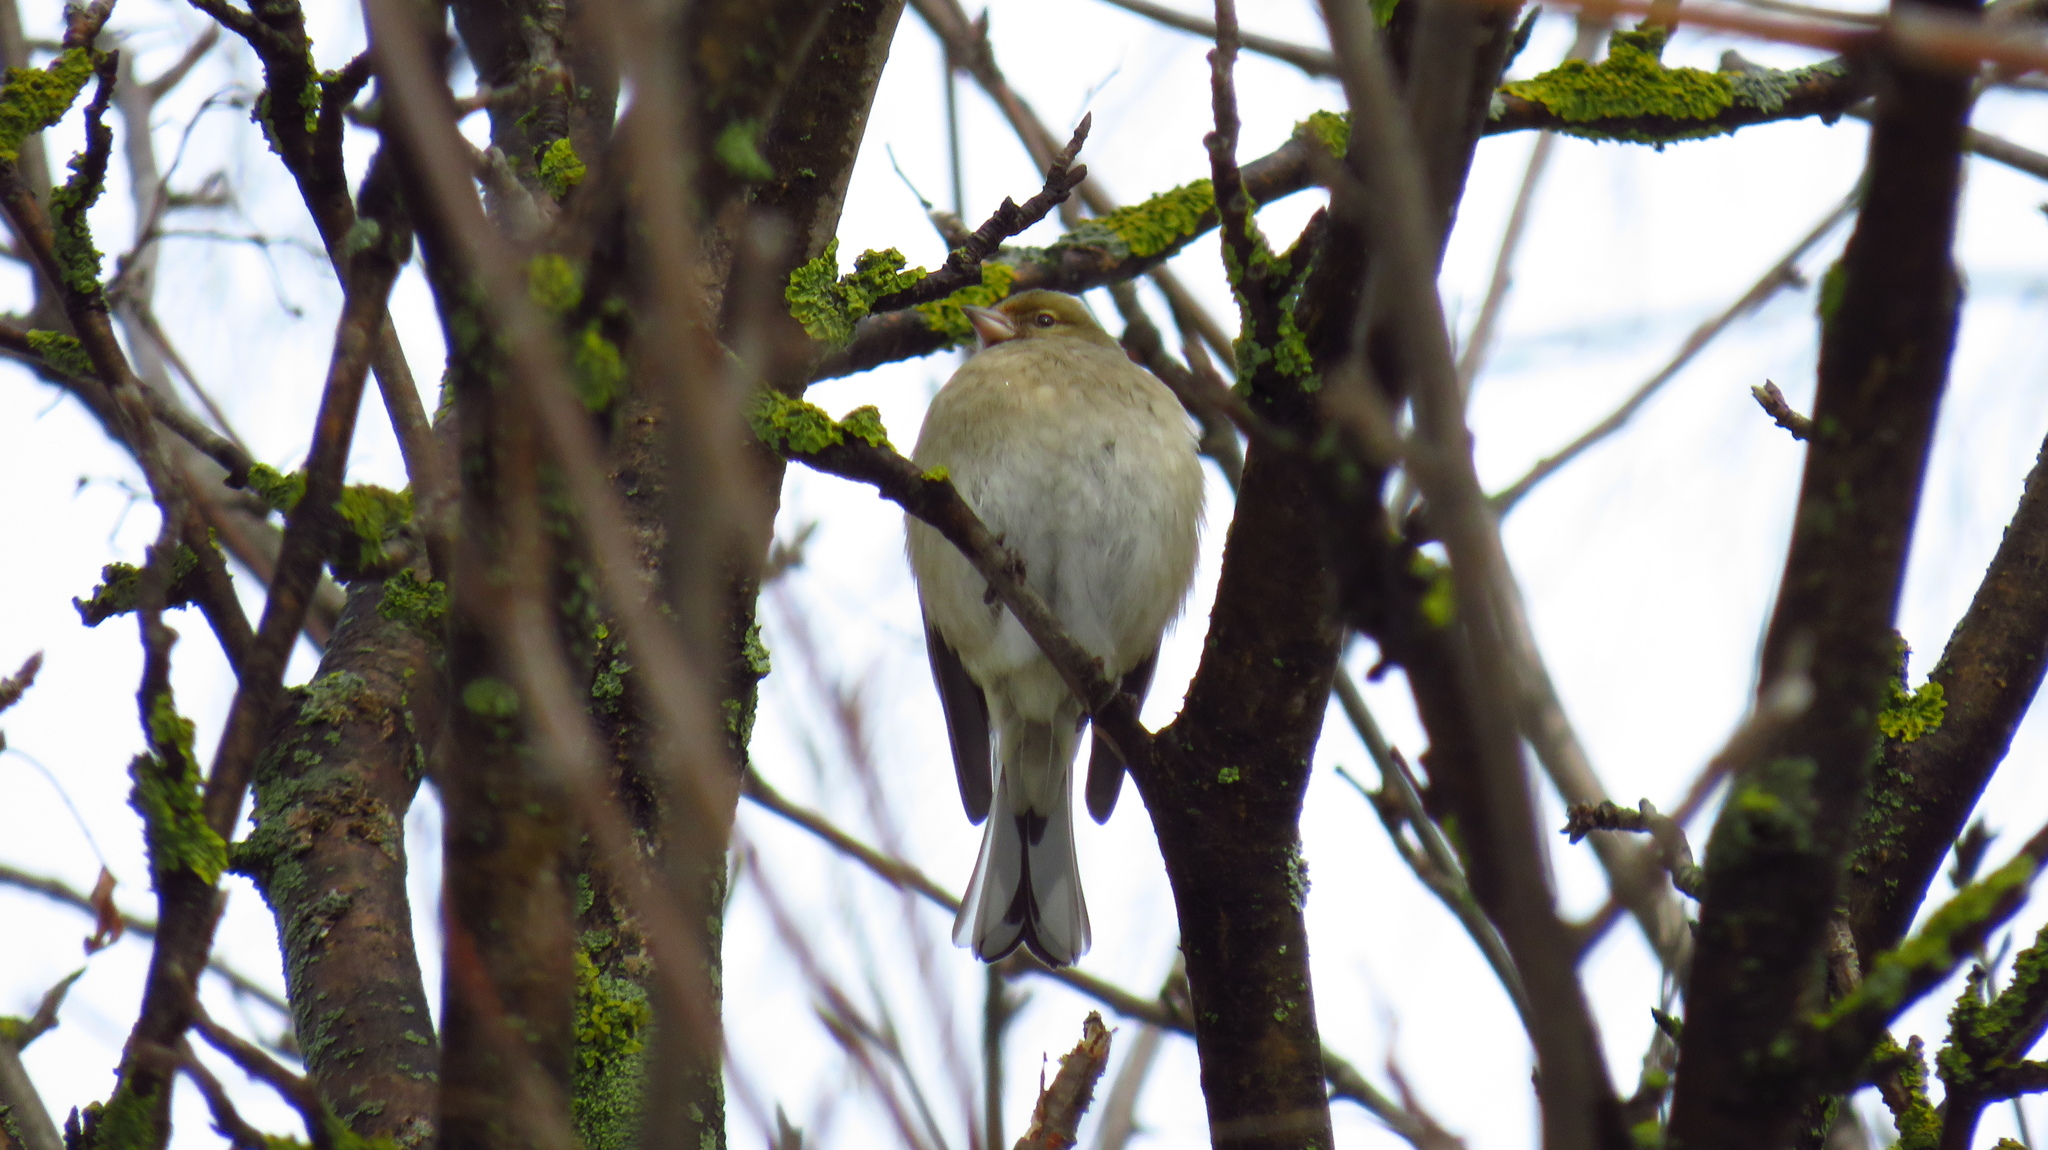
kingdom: Animalia
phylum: Chordata
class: Aves
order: Passeriformes
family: Fringillidae
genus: Fringilla
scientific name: Fringilla coelebs
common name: Common chaffinch
